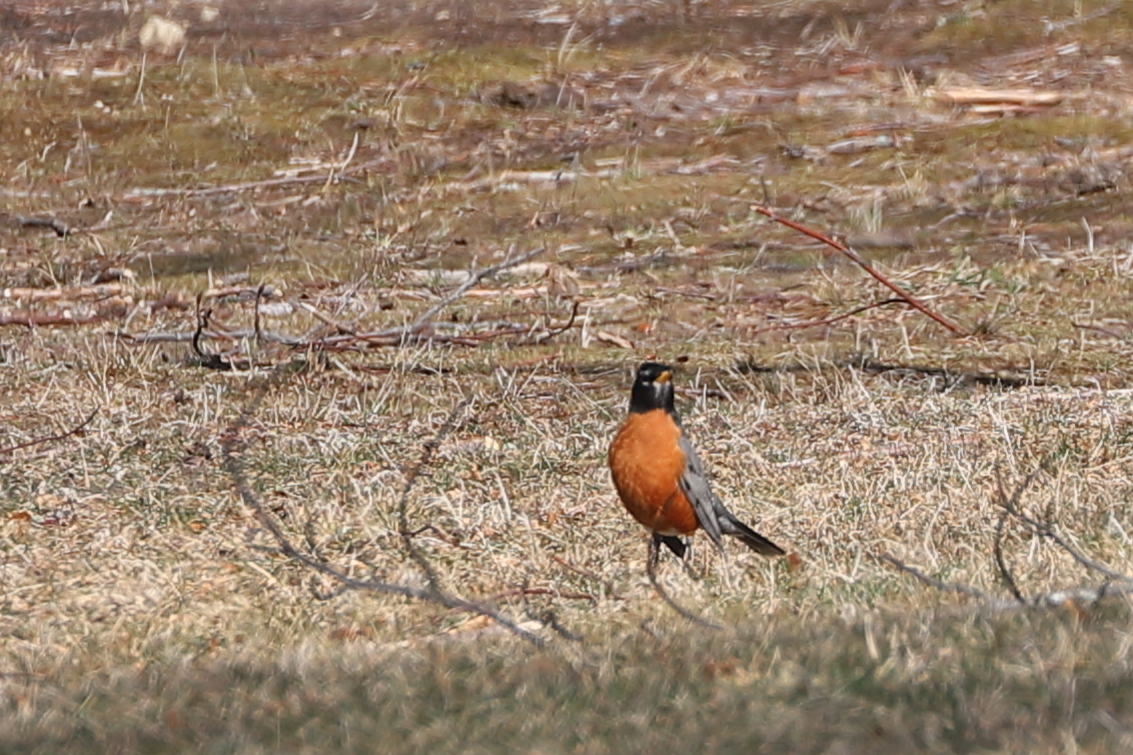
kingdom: Animalia
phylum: Chordata
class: Aves
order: Passeriformes
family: Turdidae
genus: Turdus
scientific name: Turdus migratorius
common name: American robin
